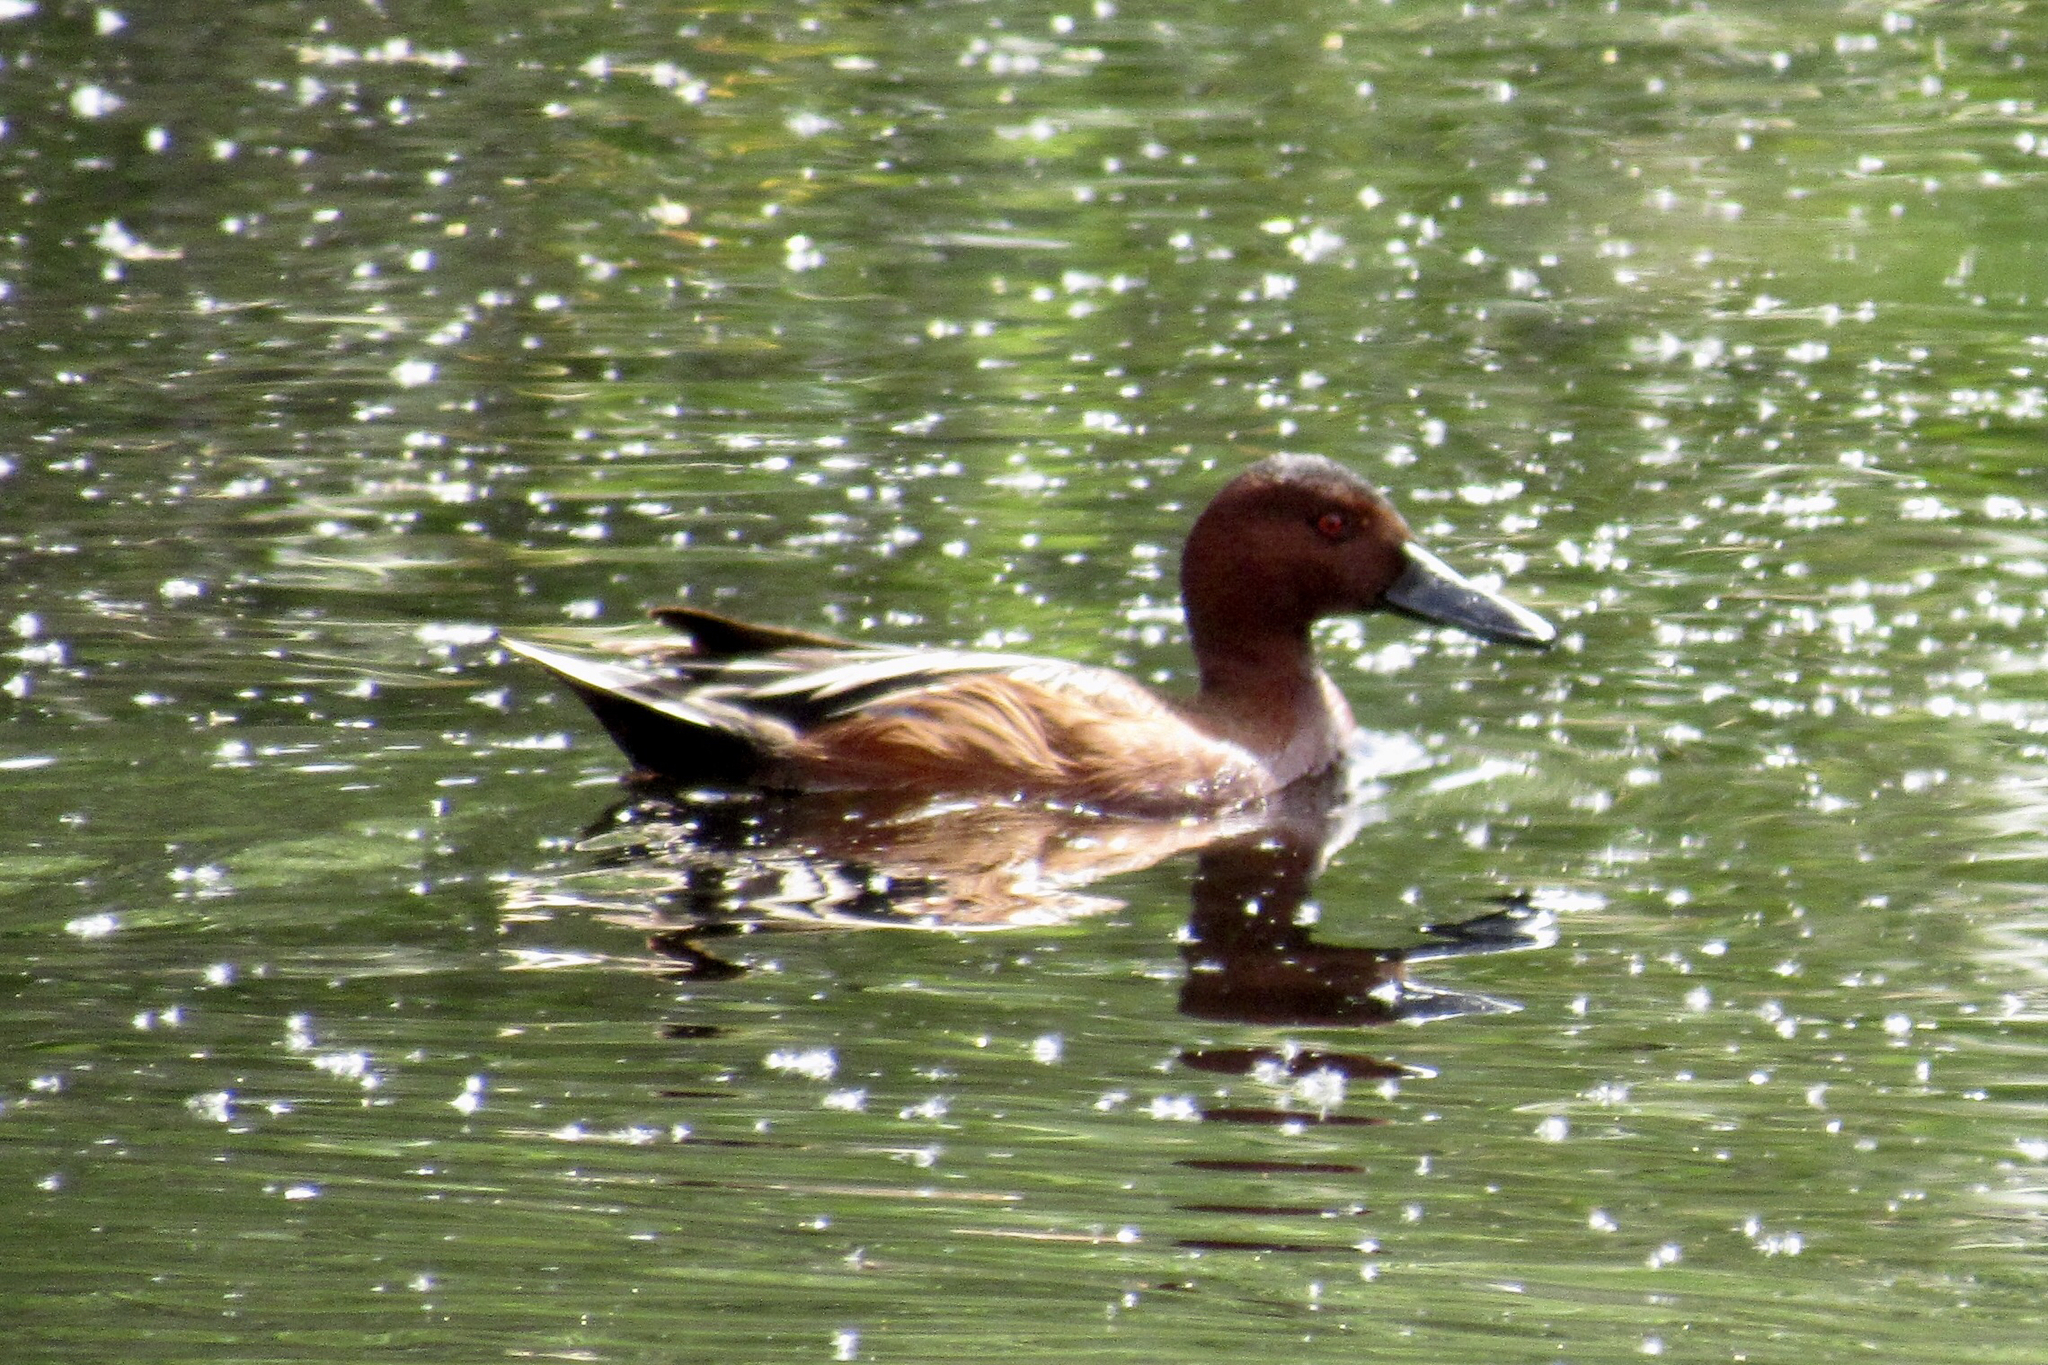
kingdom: Animalia
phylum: Chordata
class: Aves
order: Anseriformes
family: Anatidae
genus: Spatula
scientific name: Spatula cyanoptera
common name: Cinnamon teal
